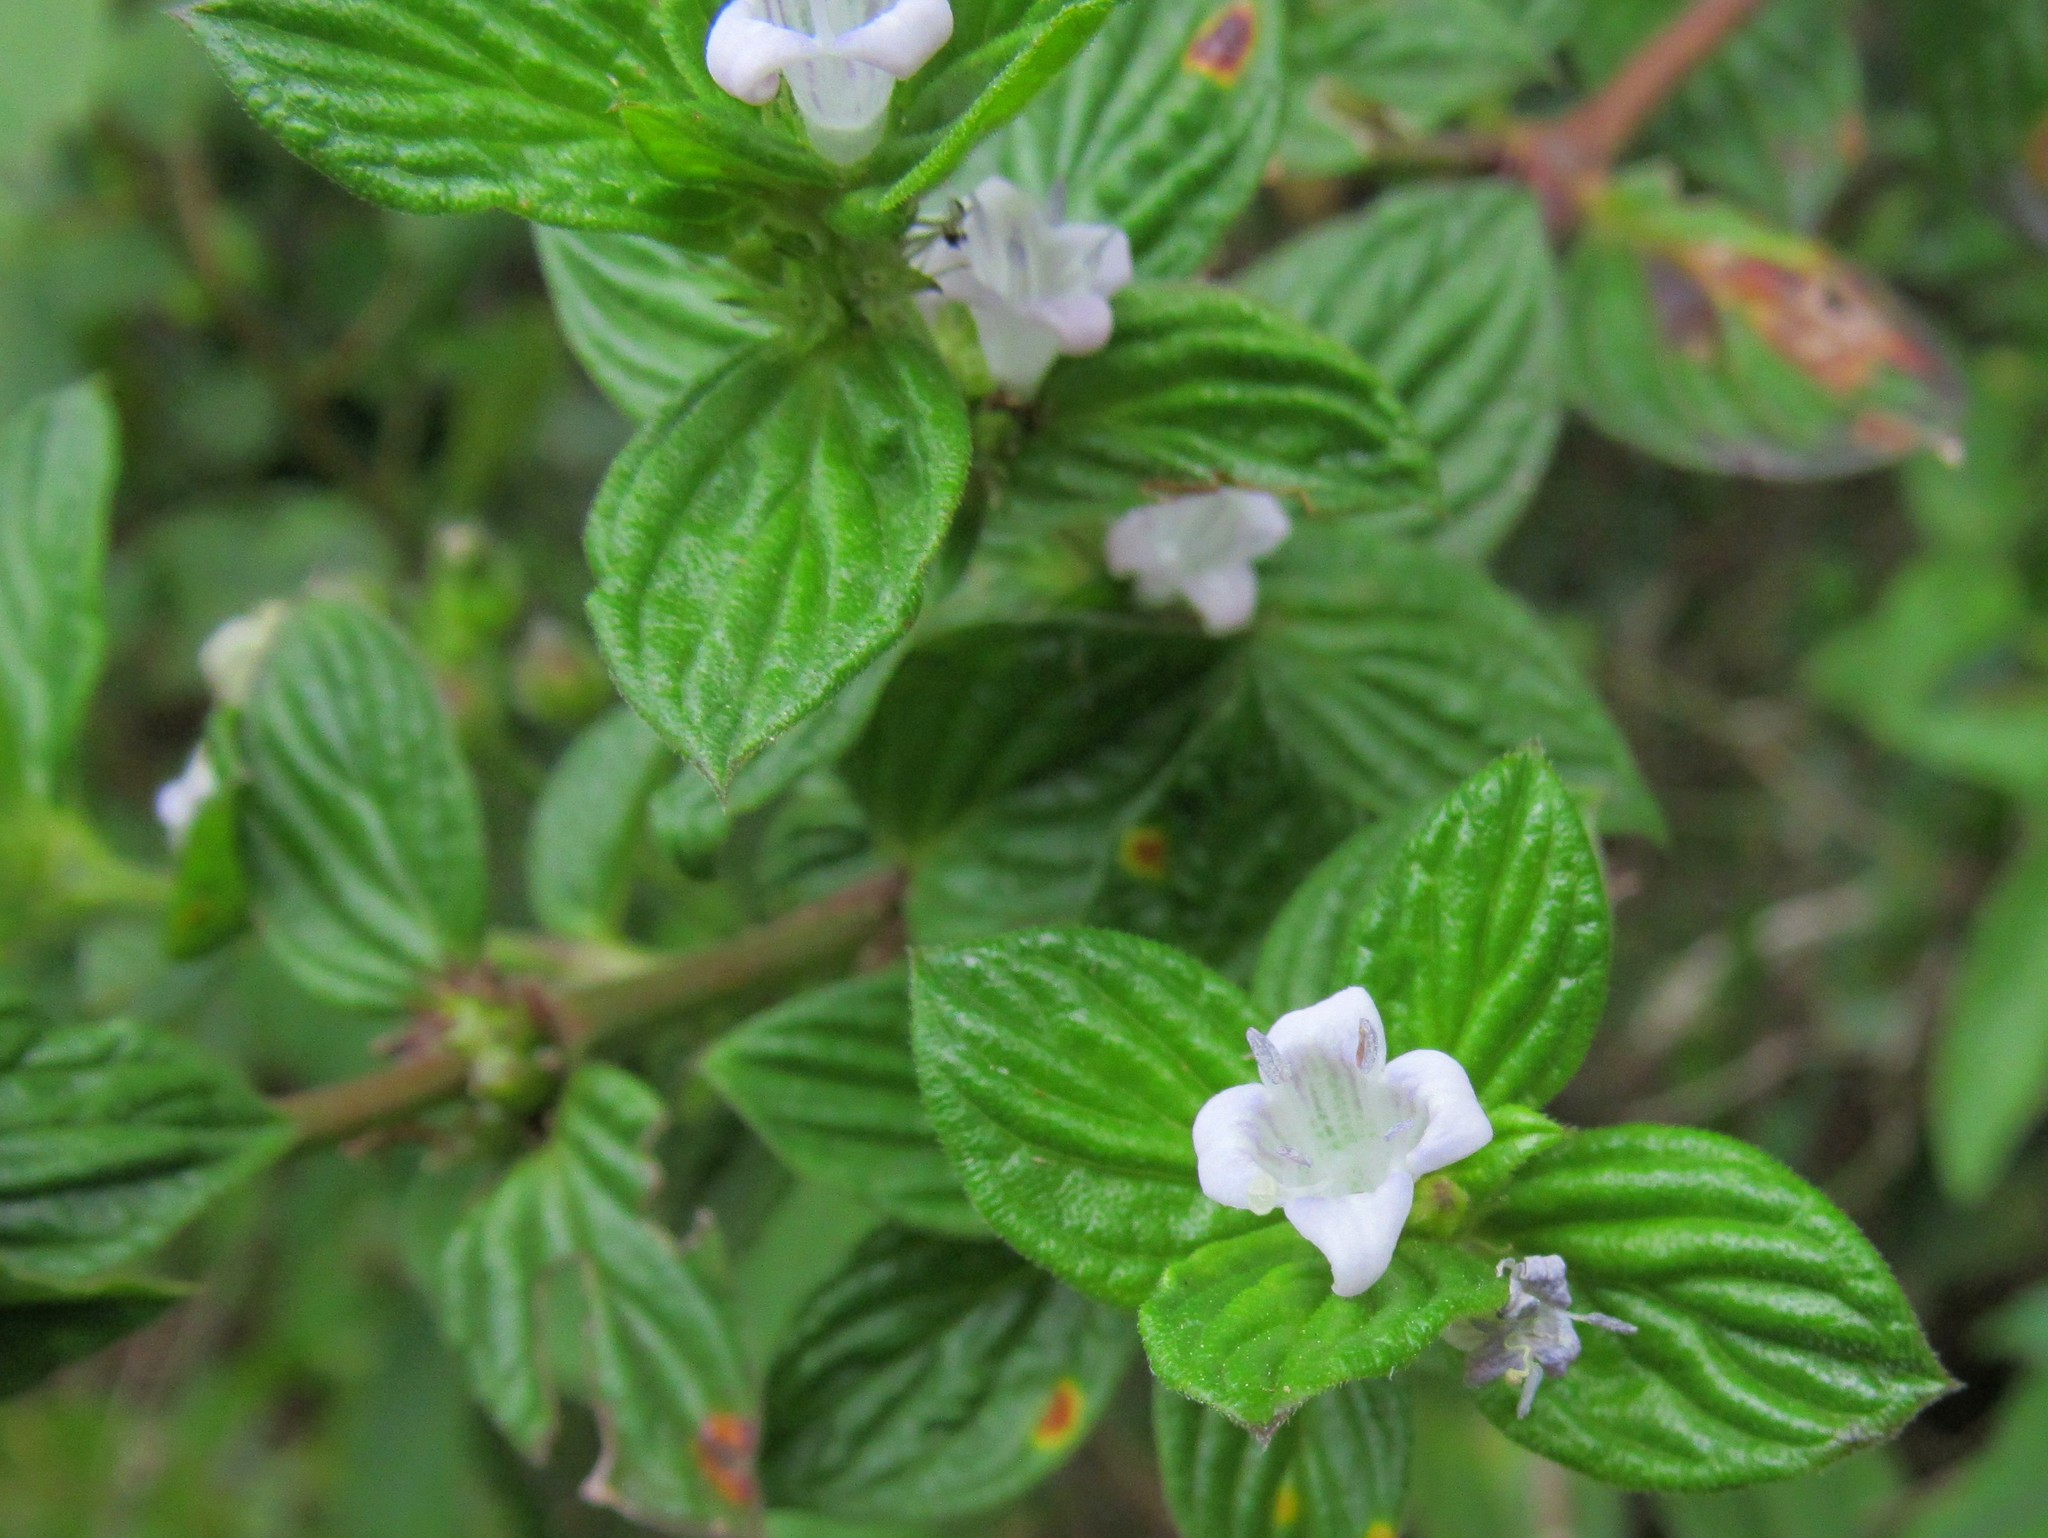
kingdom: Plantae
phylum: Tracheophyta
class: Magnoliopsida
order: Gentianales
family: Rubiaceae
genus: Hexasepalum
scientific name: Hexasepalum radulum
